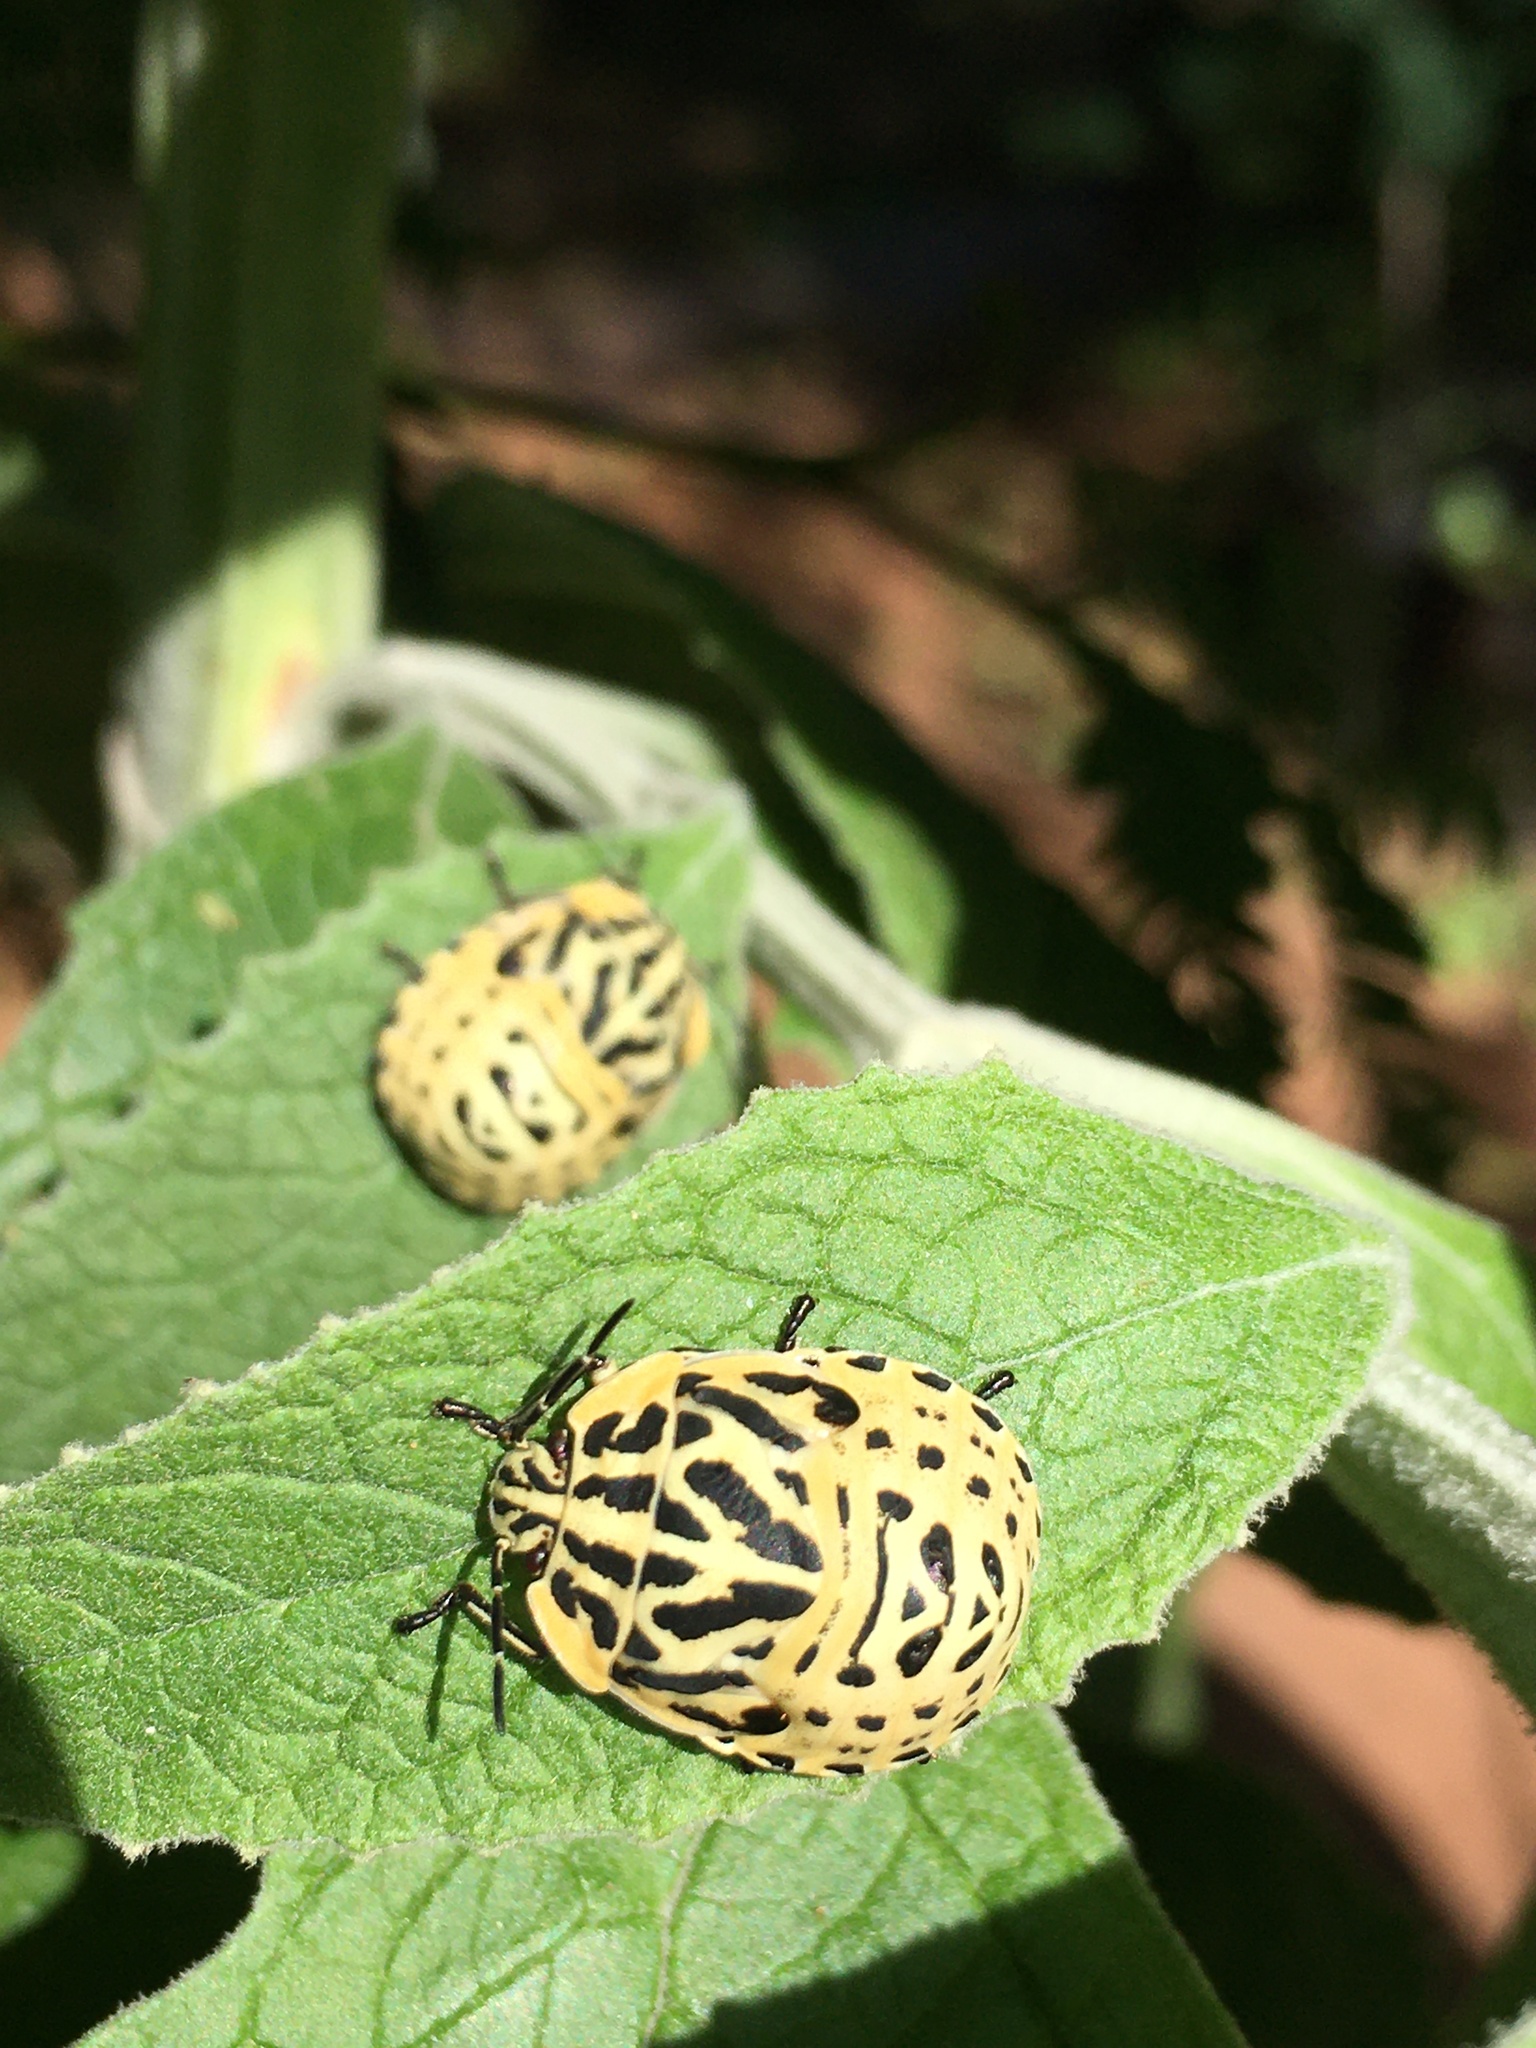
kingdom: Animalia
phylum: Arthropoda
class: Insecta
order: Hemiptera
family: Scutelleridae
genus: Tetyra
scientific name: Tetyra
